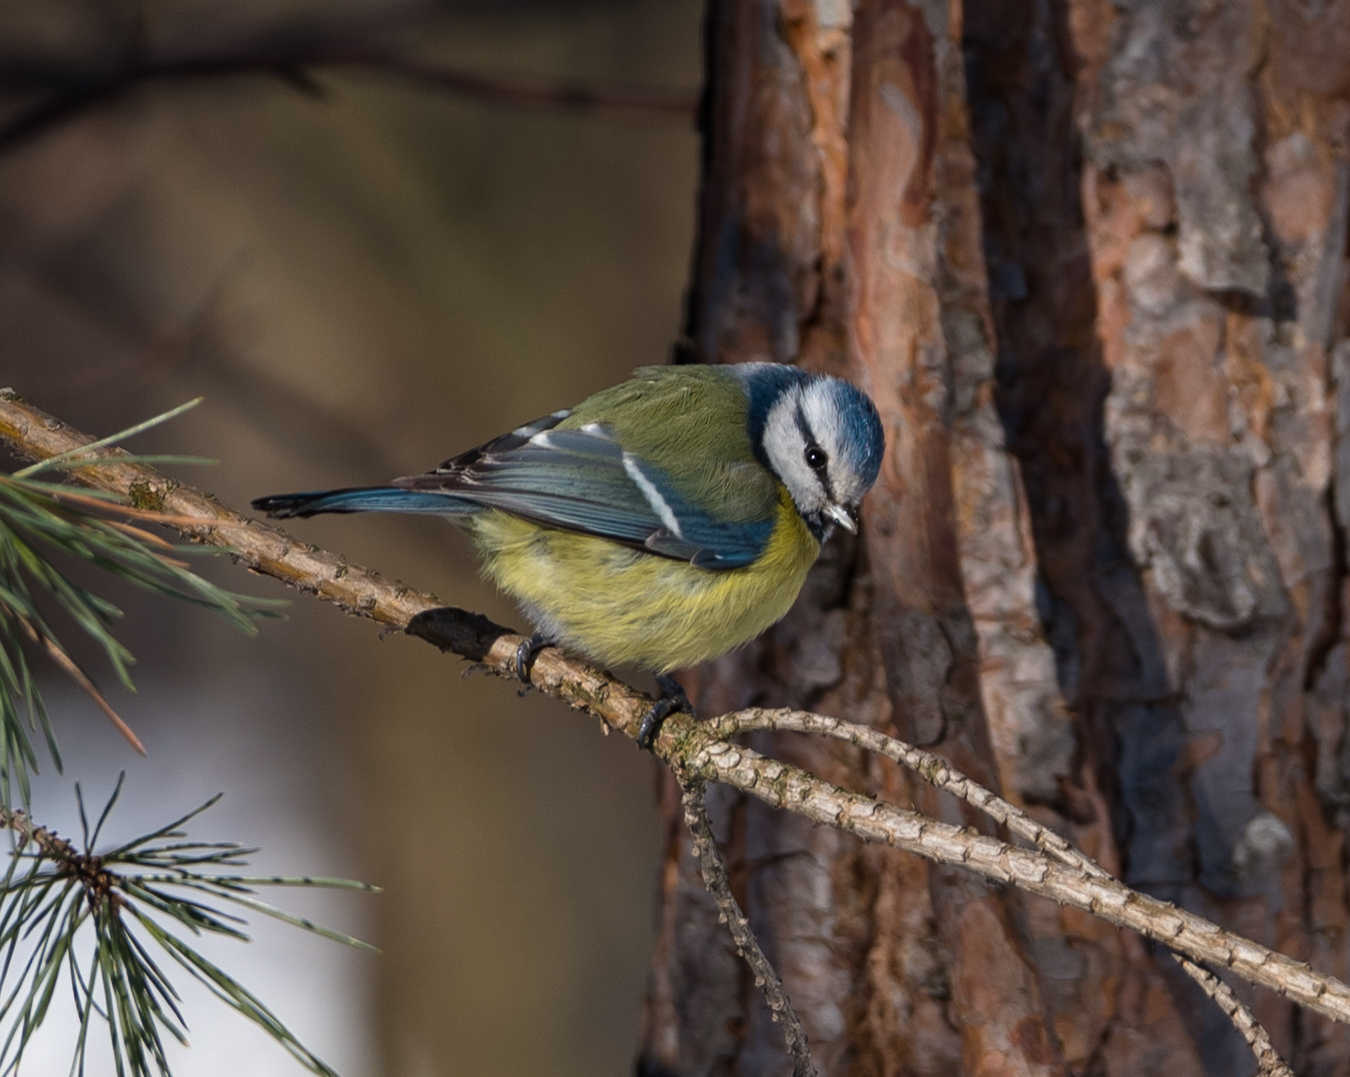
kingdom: Animalia
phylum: Chordata
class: Aves
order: Passeriformes
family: Paridae
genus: Cyanistes
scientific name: Cyanistes caeruleus
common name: Eurasian blue tit
